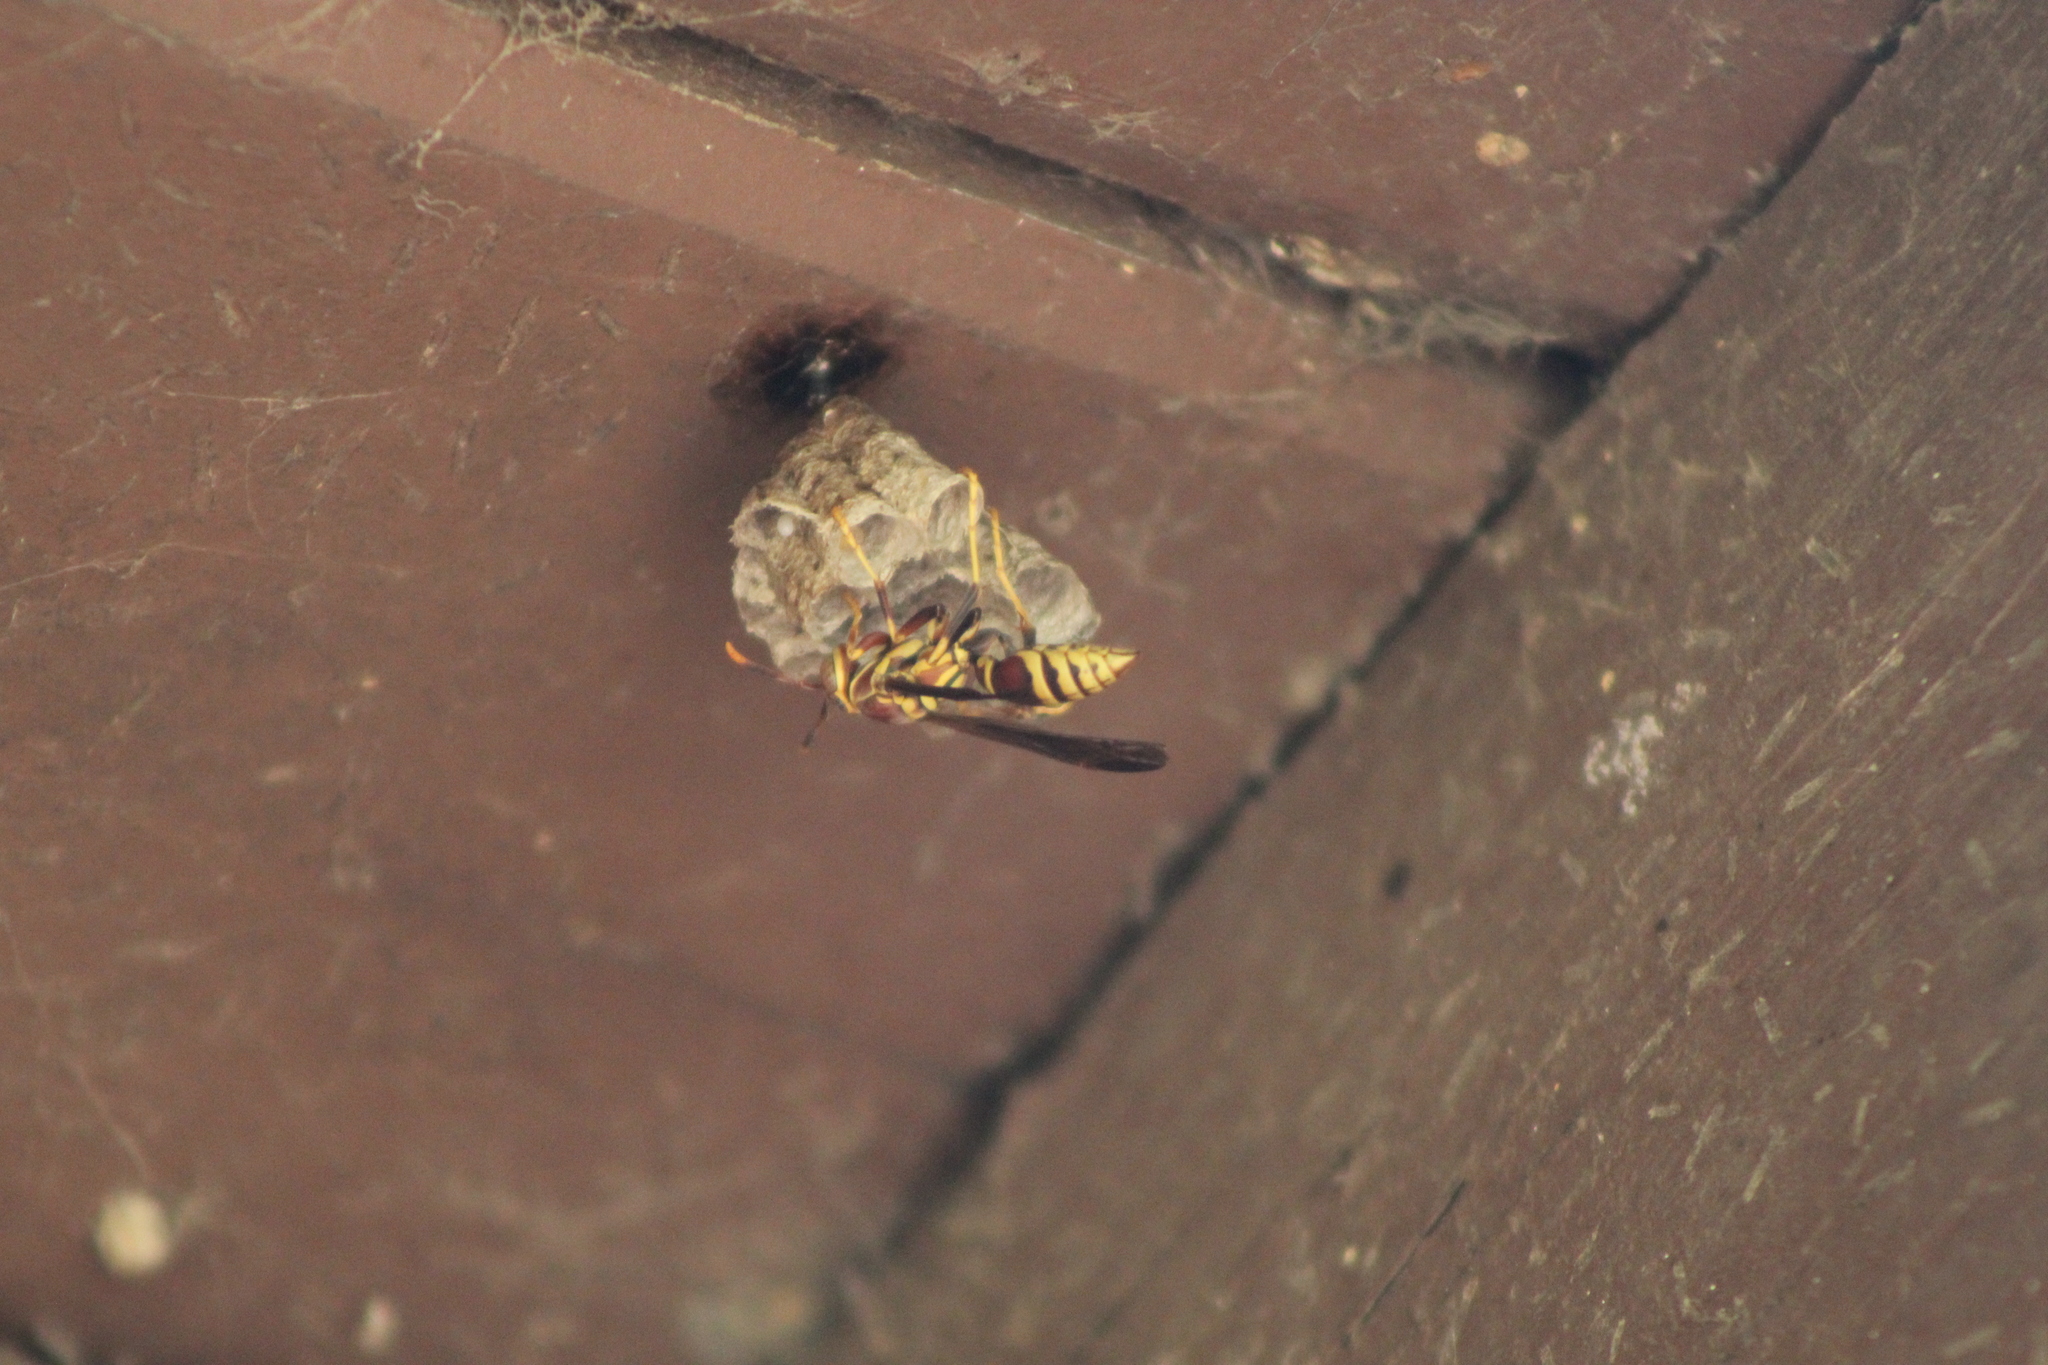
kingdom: Animalia
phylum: Arthropoda
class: Insecta
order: Hymenoptera
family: Eumenidae
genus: Polistes
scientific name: Polistes exclamans
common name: Paper wasp
